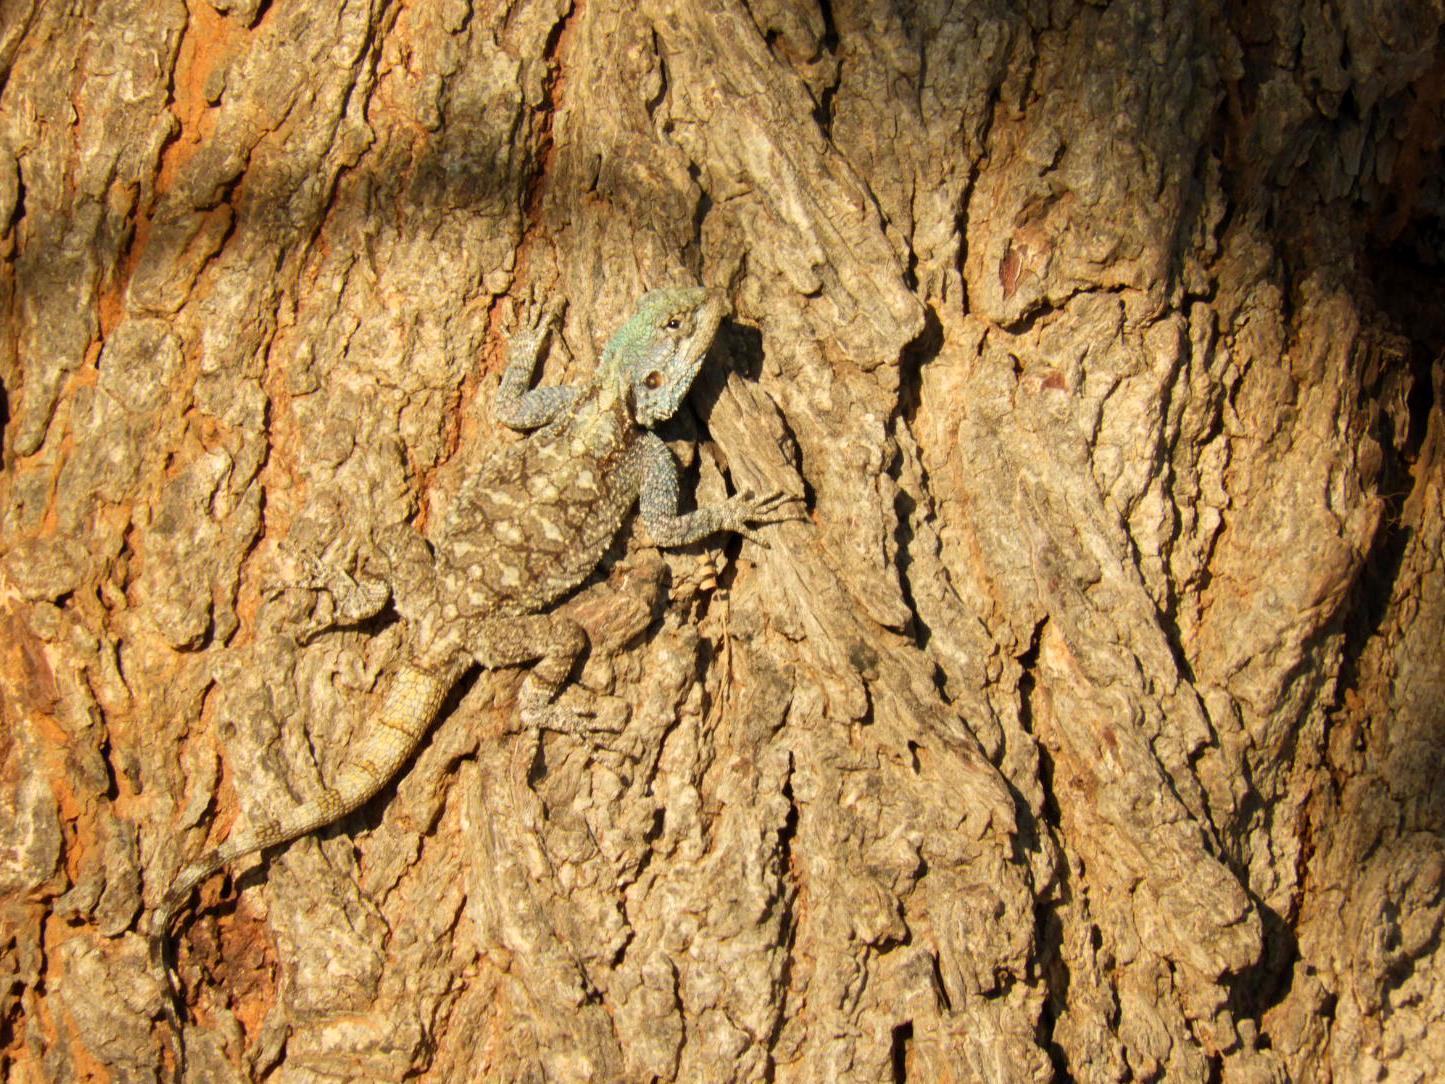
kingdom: Animalia
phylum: Chordata
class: Squamata
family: Agamidae
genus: Acanthocercus
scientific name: Acanthocercus atricollis
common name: Southern tree agama
